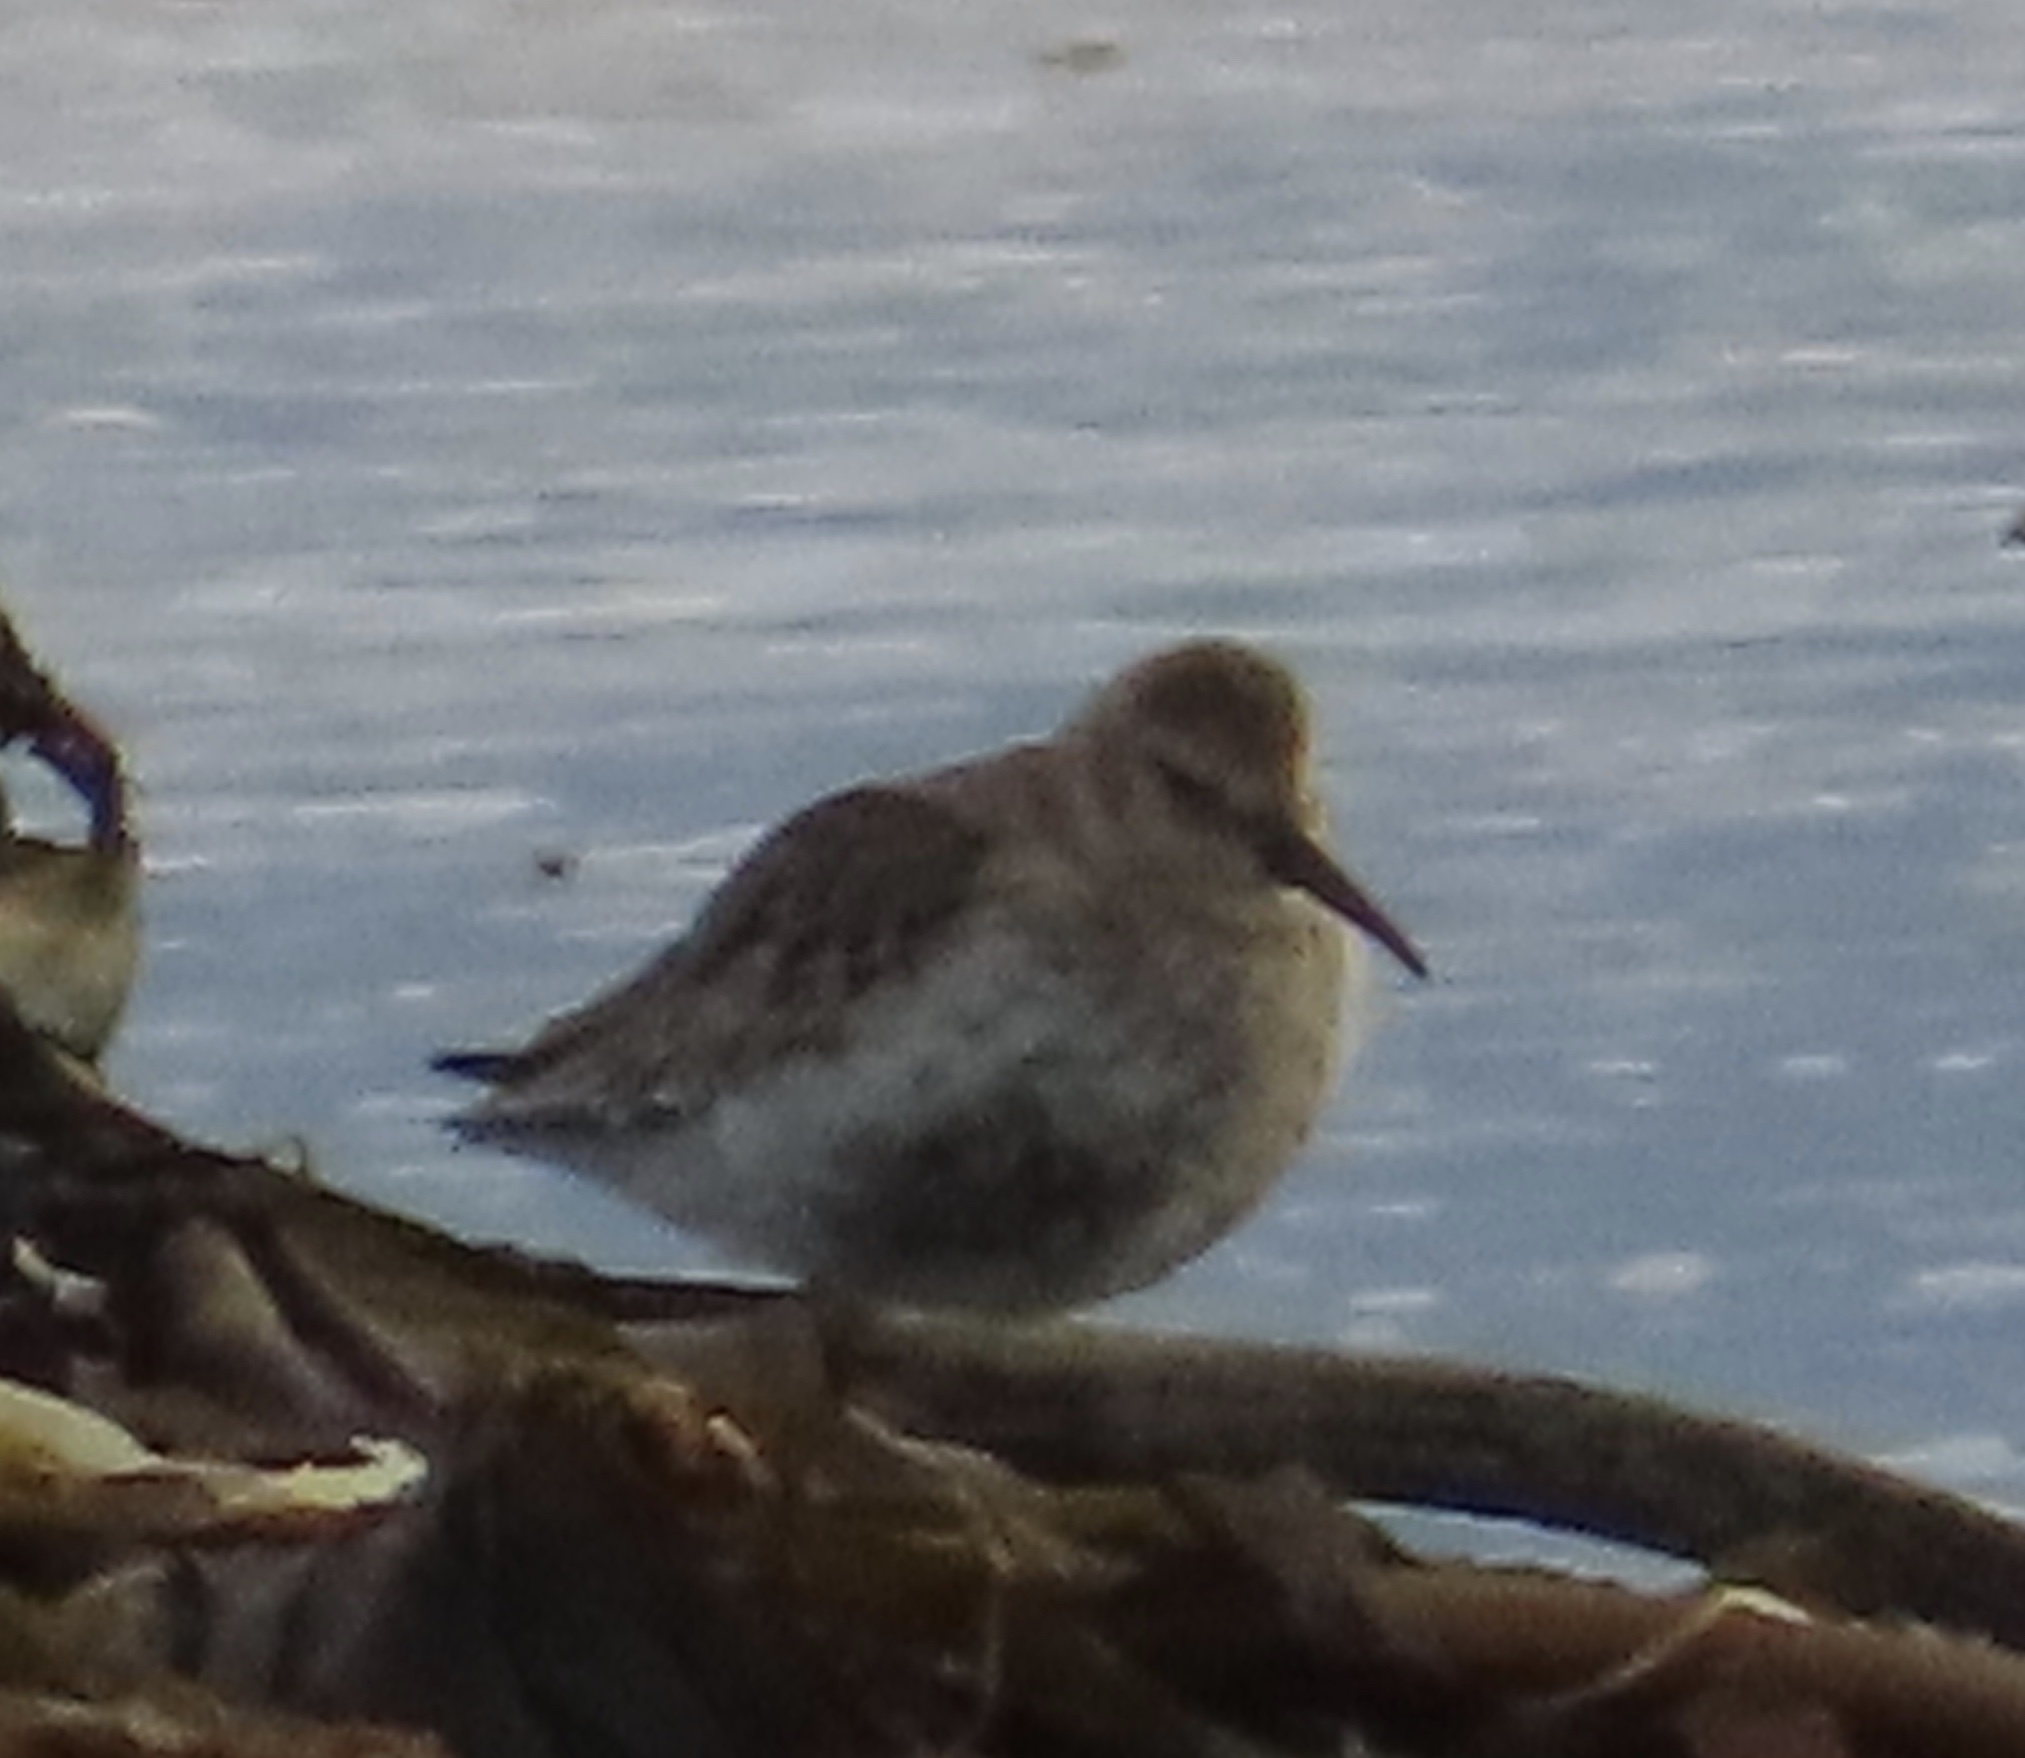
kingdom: Animalia
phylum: Chordata
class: Aves
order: Charadriiformes
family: Scolopacidae
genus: Calidris
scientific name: Calidris alpina
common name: Dunlin
